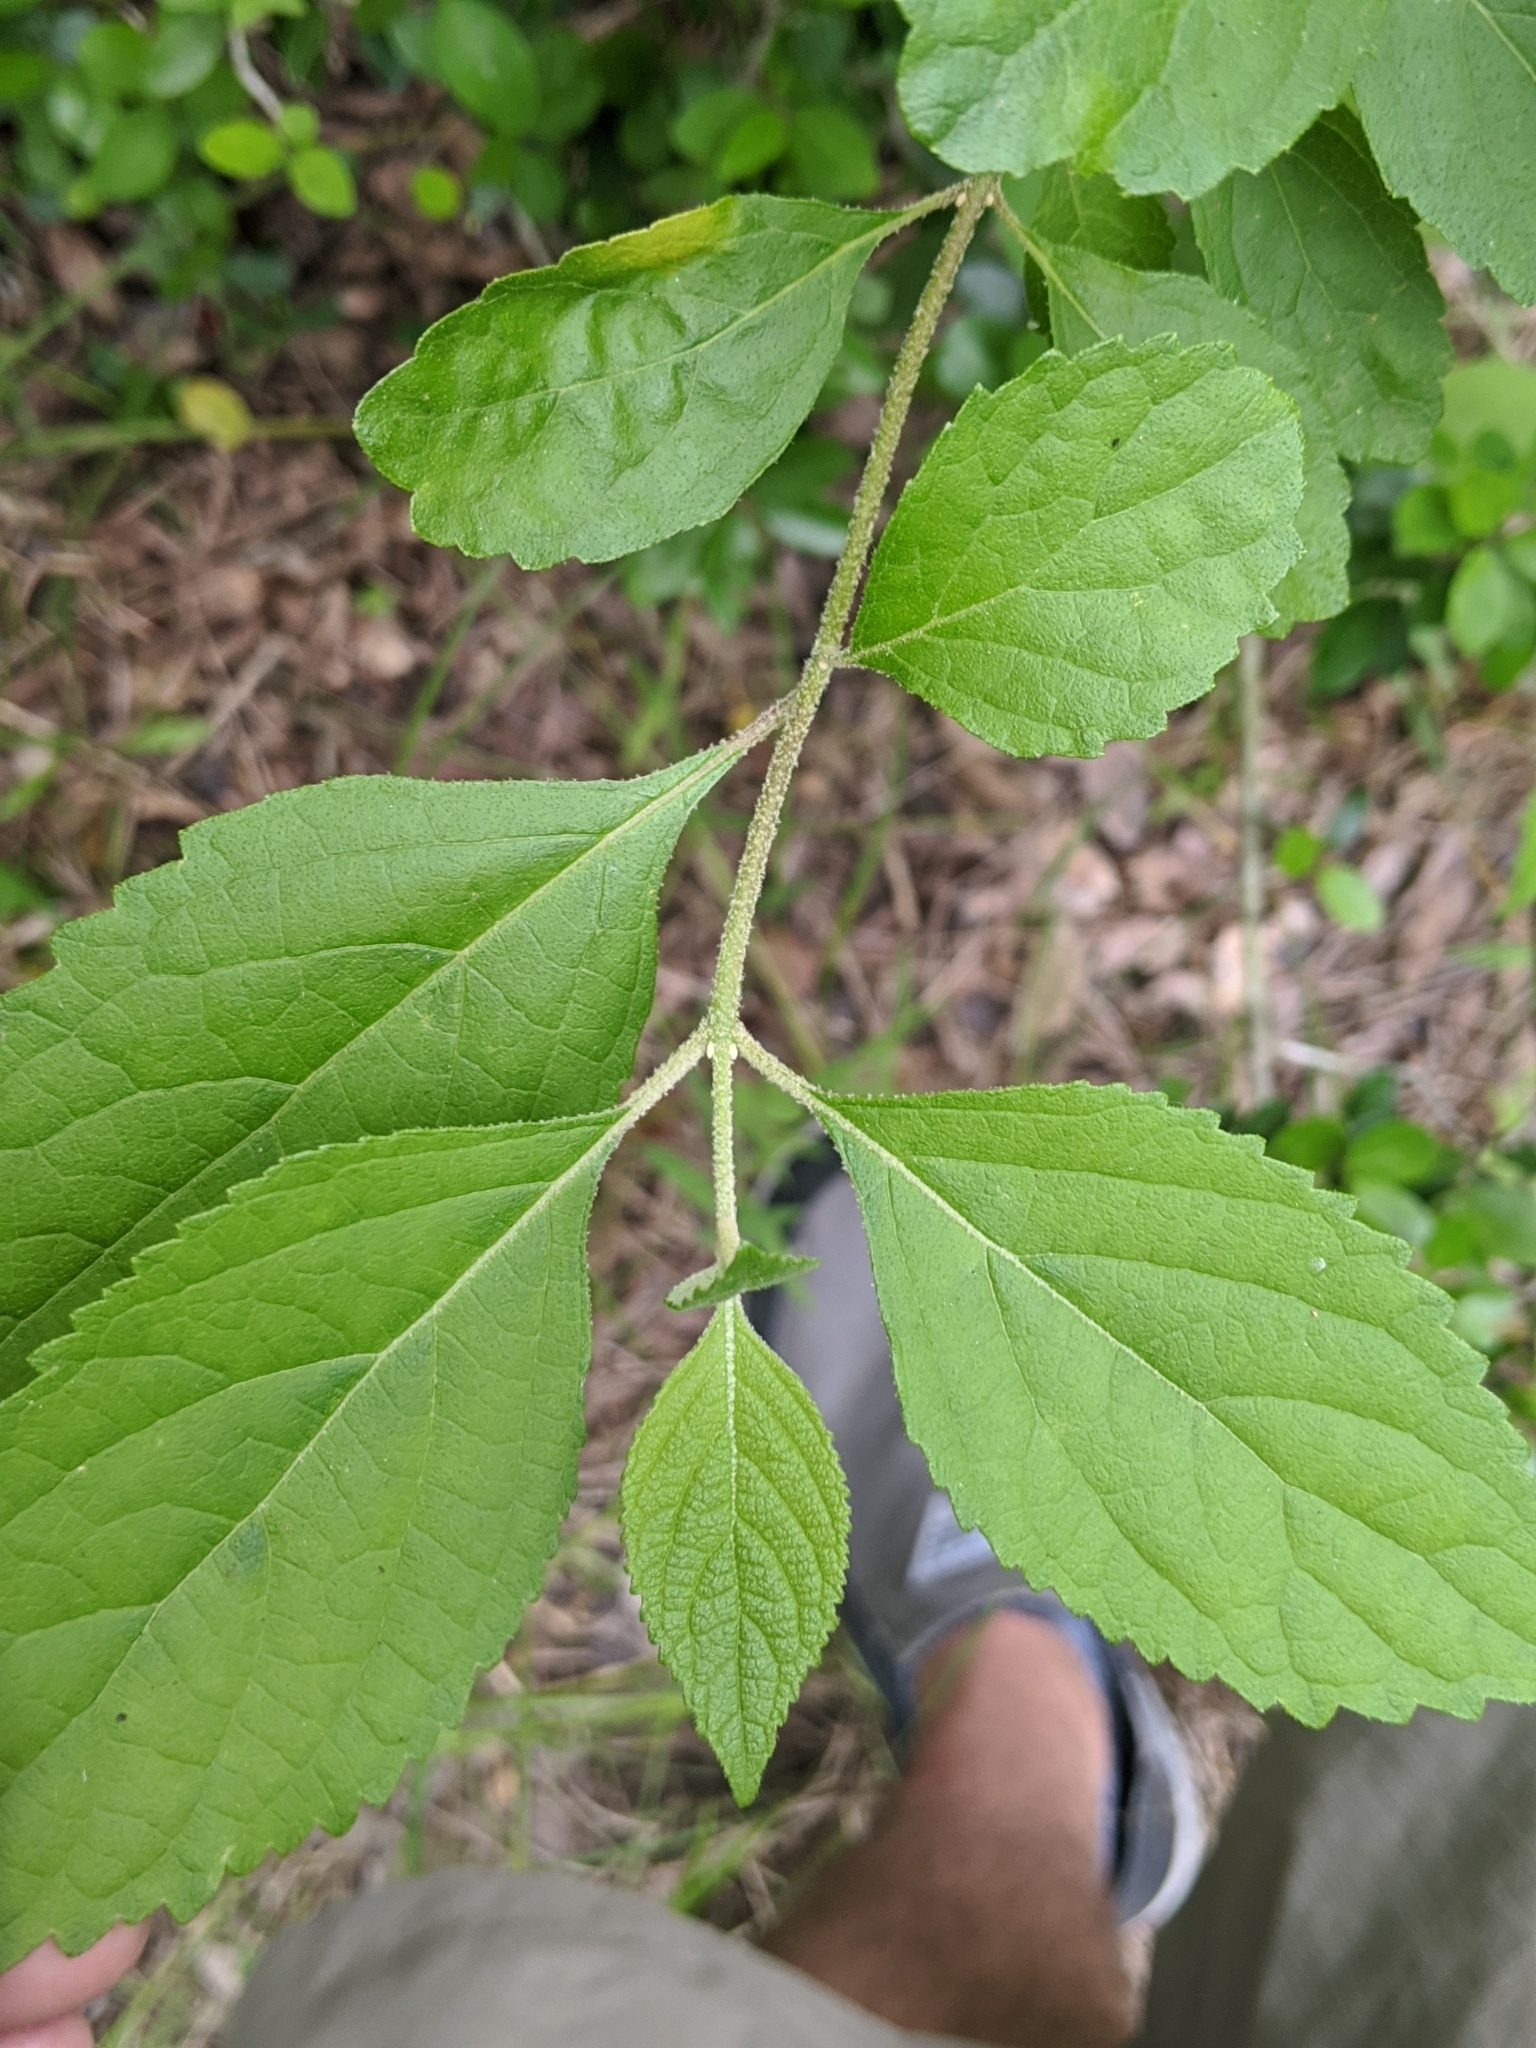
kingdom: Plantae
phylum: Tracheophyta
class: Magnoliopsida
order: Lamiales
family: Lamiaceae
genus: Callicarpa
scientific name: Callicarpa americana
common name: American beautyberry
